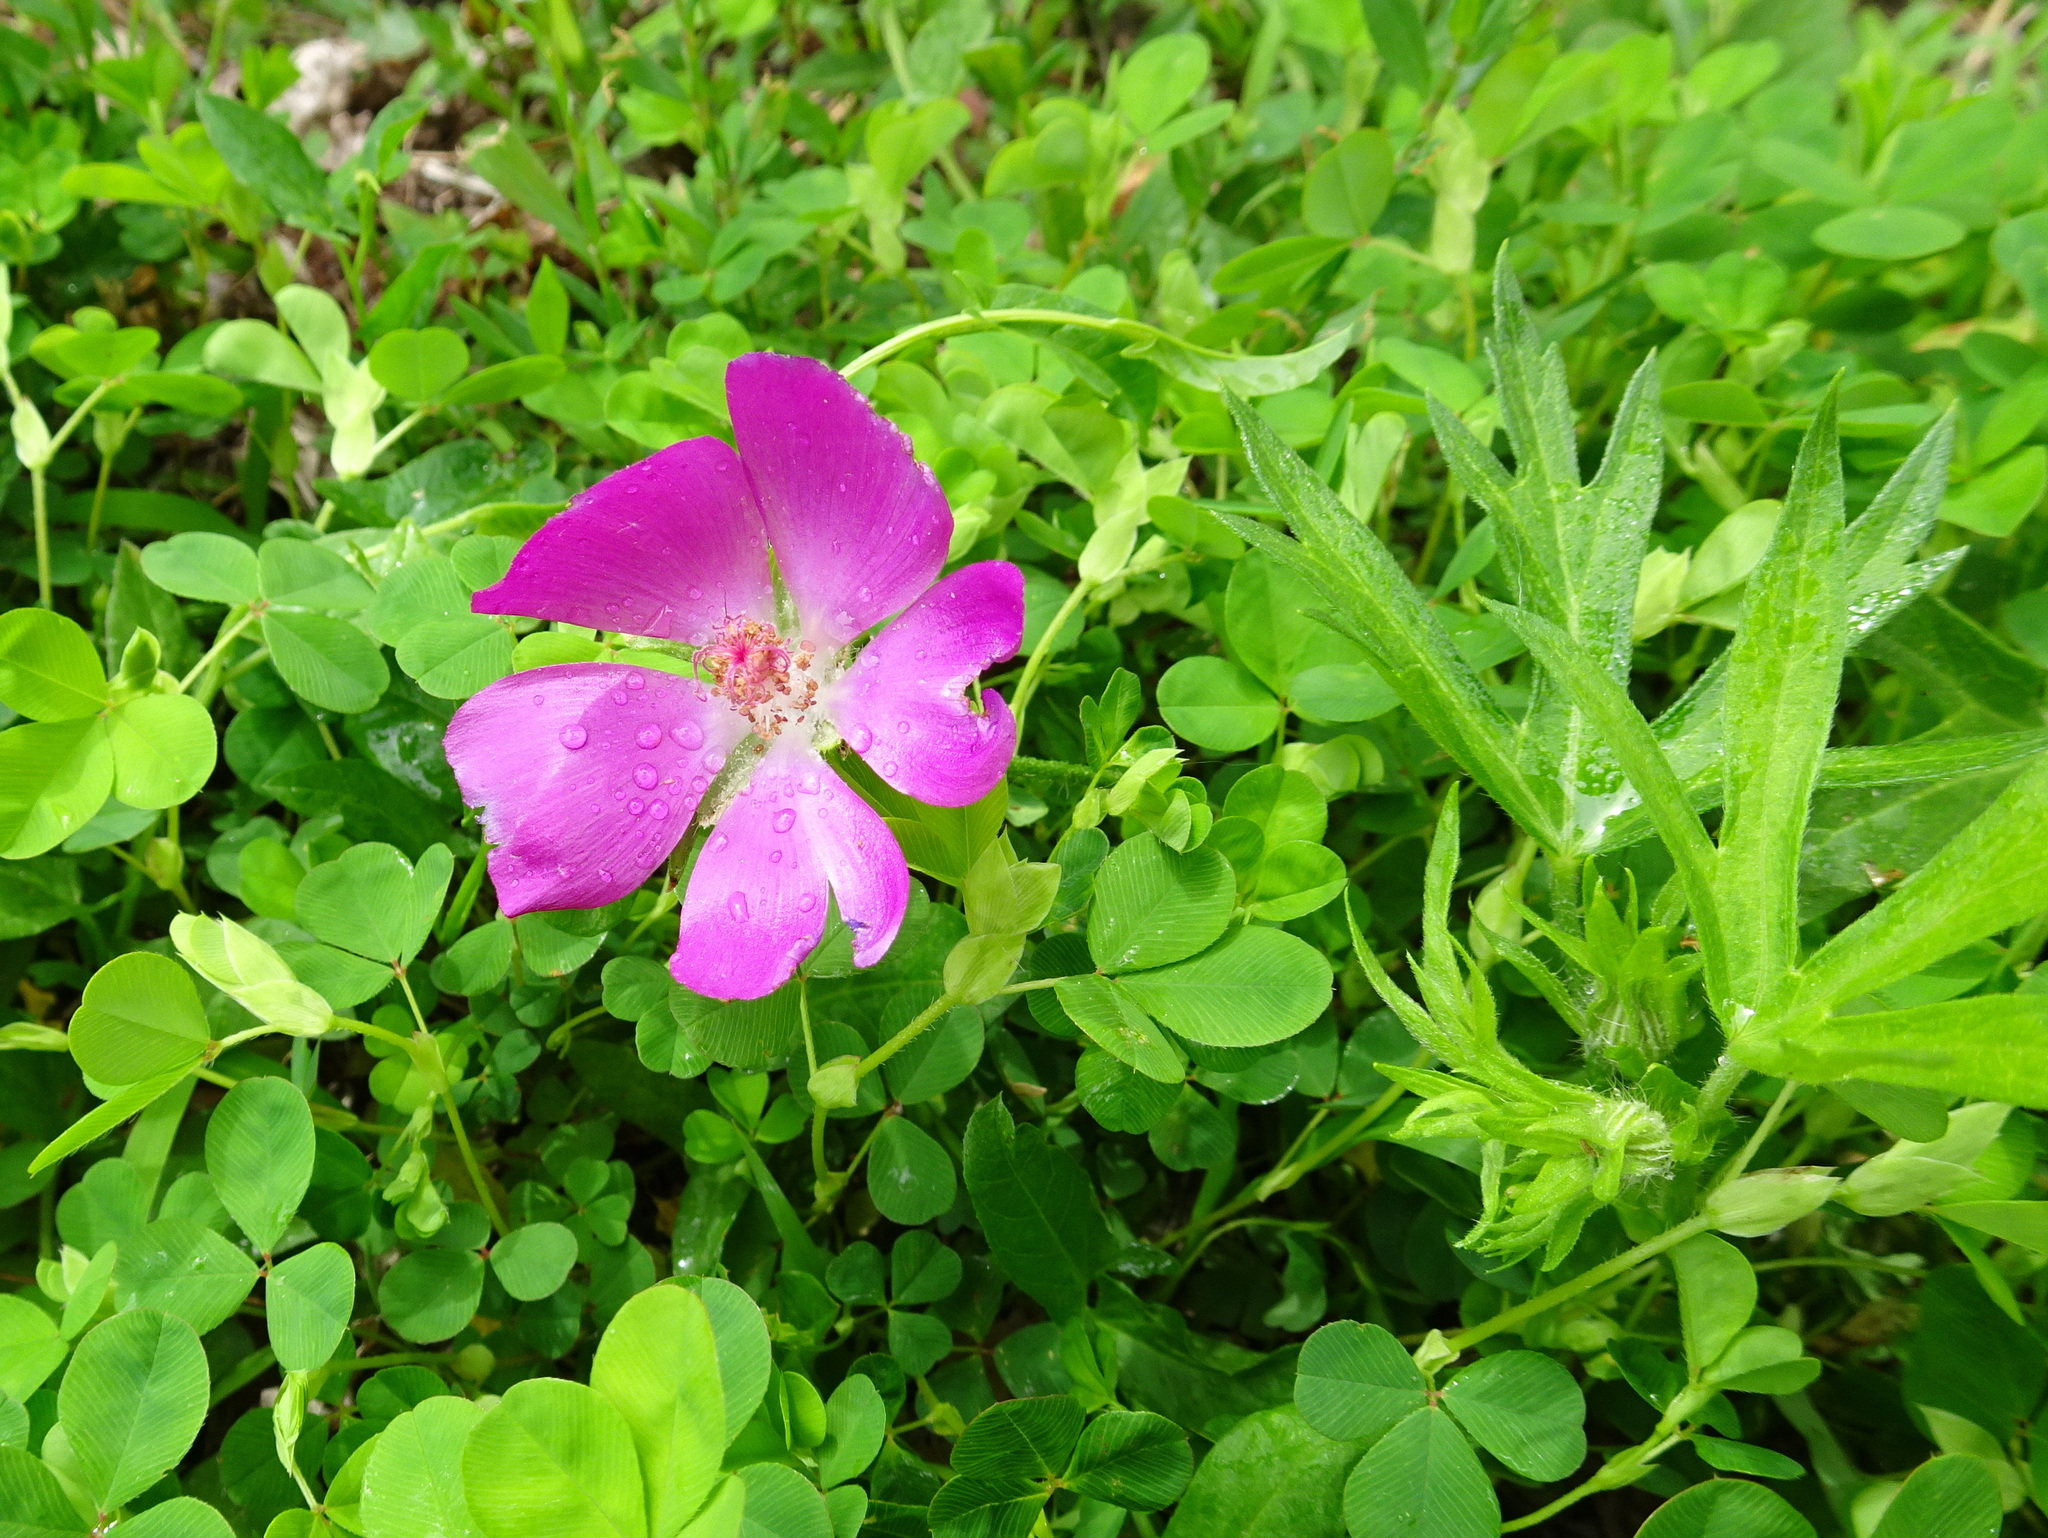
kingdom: Plantae
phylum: Tracheophyta
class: Magnoliopsida
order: Malvales
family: Malvaceae
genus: Callirhoe
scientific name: Callirhoe involucrata
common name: Purple poppy-mallow
